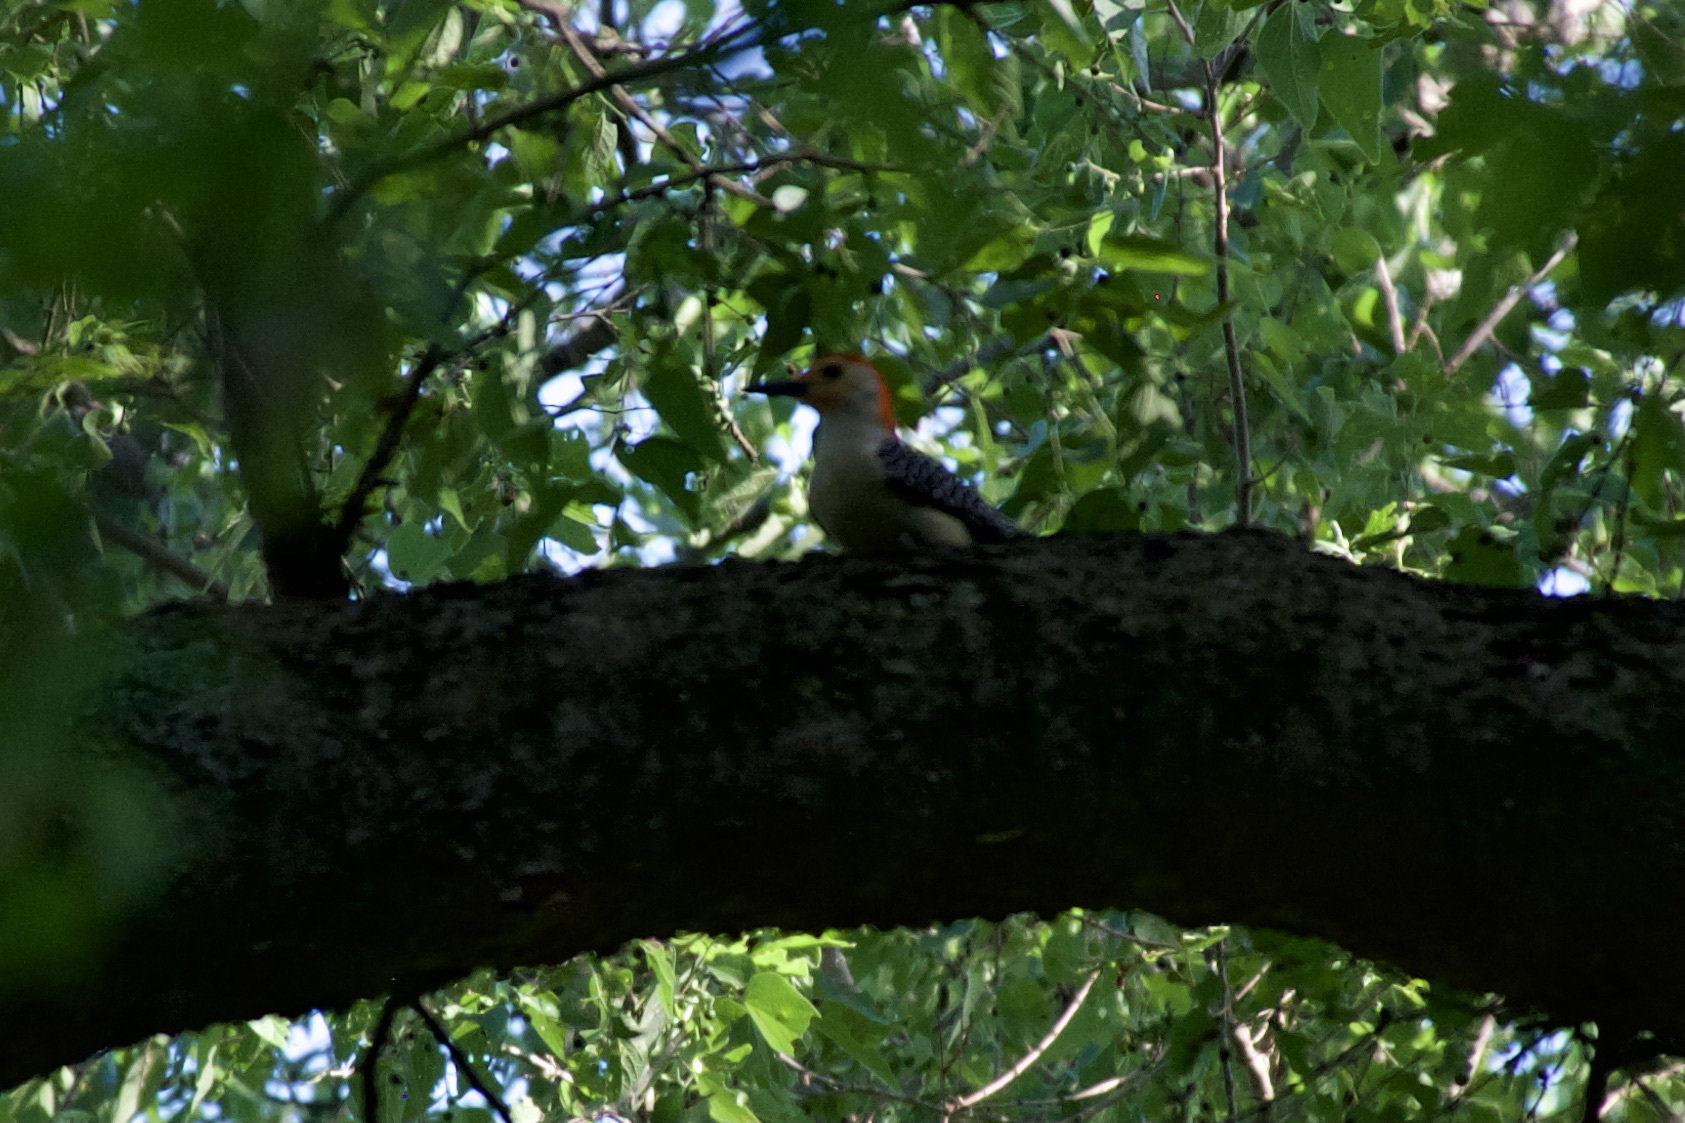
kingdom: Animalia
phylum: Chordata
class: Aves
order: Piciformes
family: Picidae
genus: Melanerpes
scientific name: Melanerpes carolinus
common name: Red-bellied woodpecker
